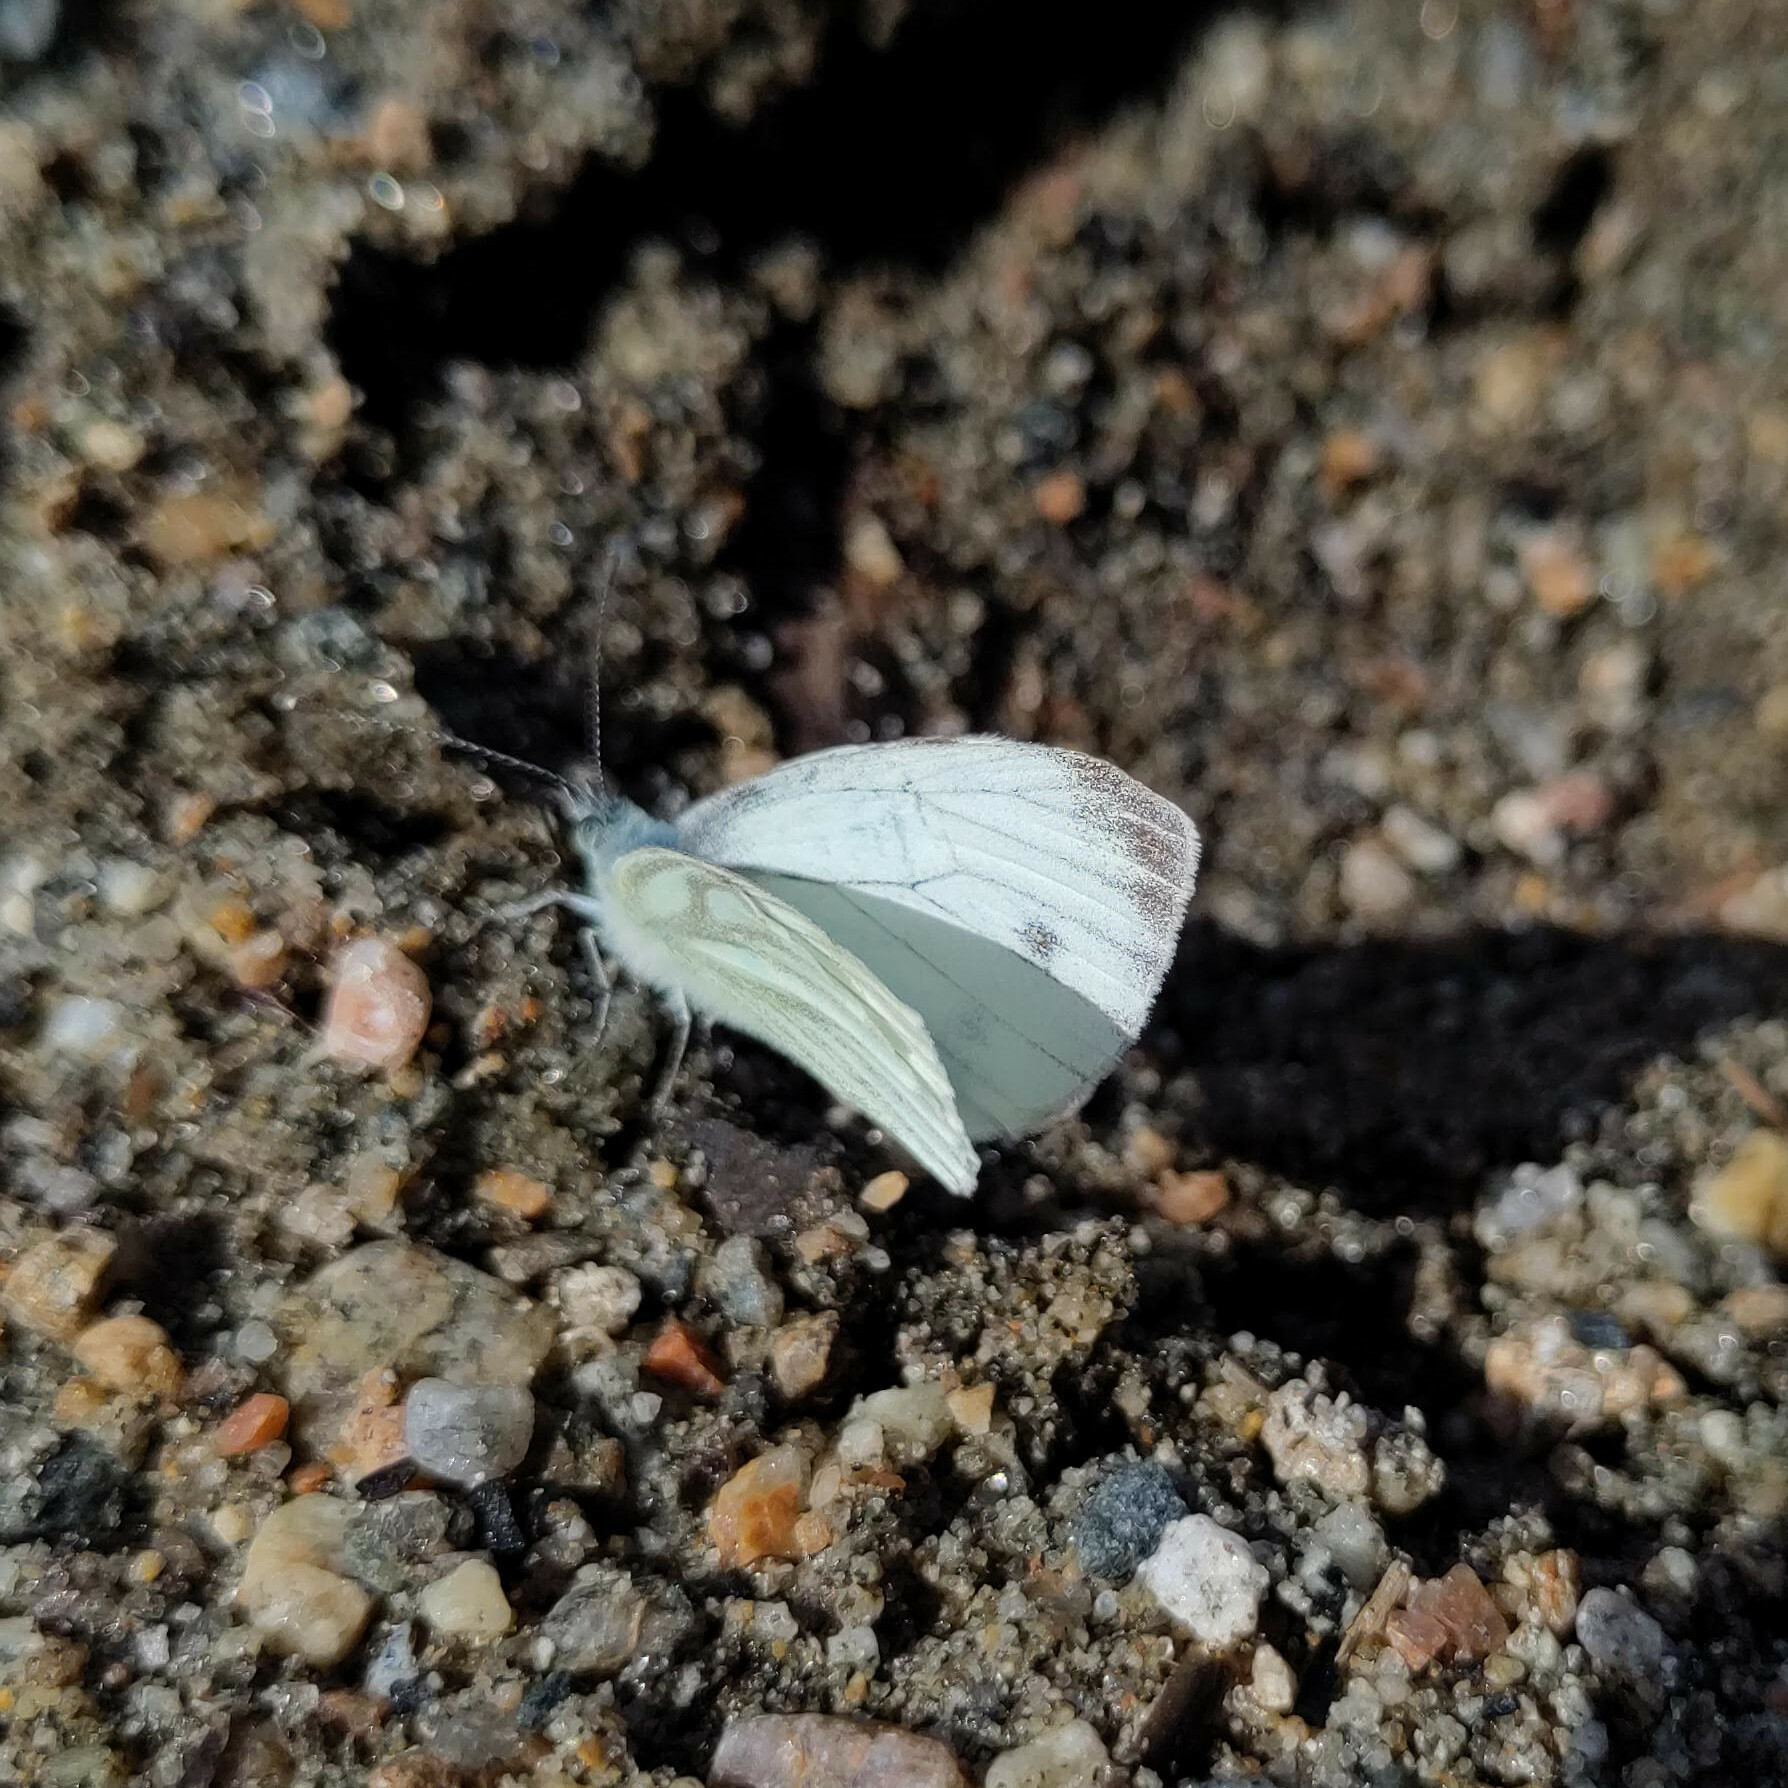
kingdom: Animalia
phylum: Arthropoda
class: Insecta
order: Lepidoptera
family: Pieridae
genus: Pieris
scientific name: Pieris napi
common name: Green-veined white
